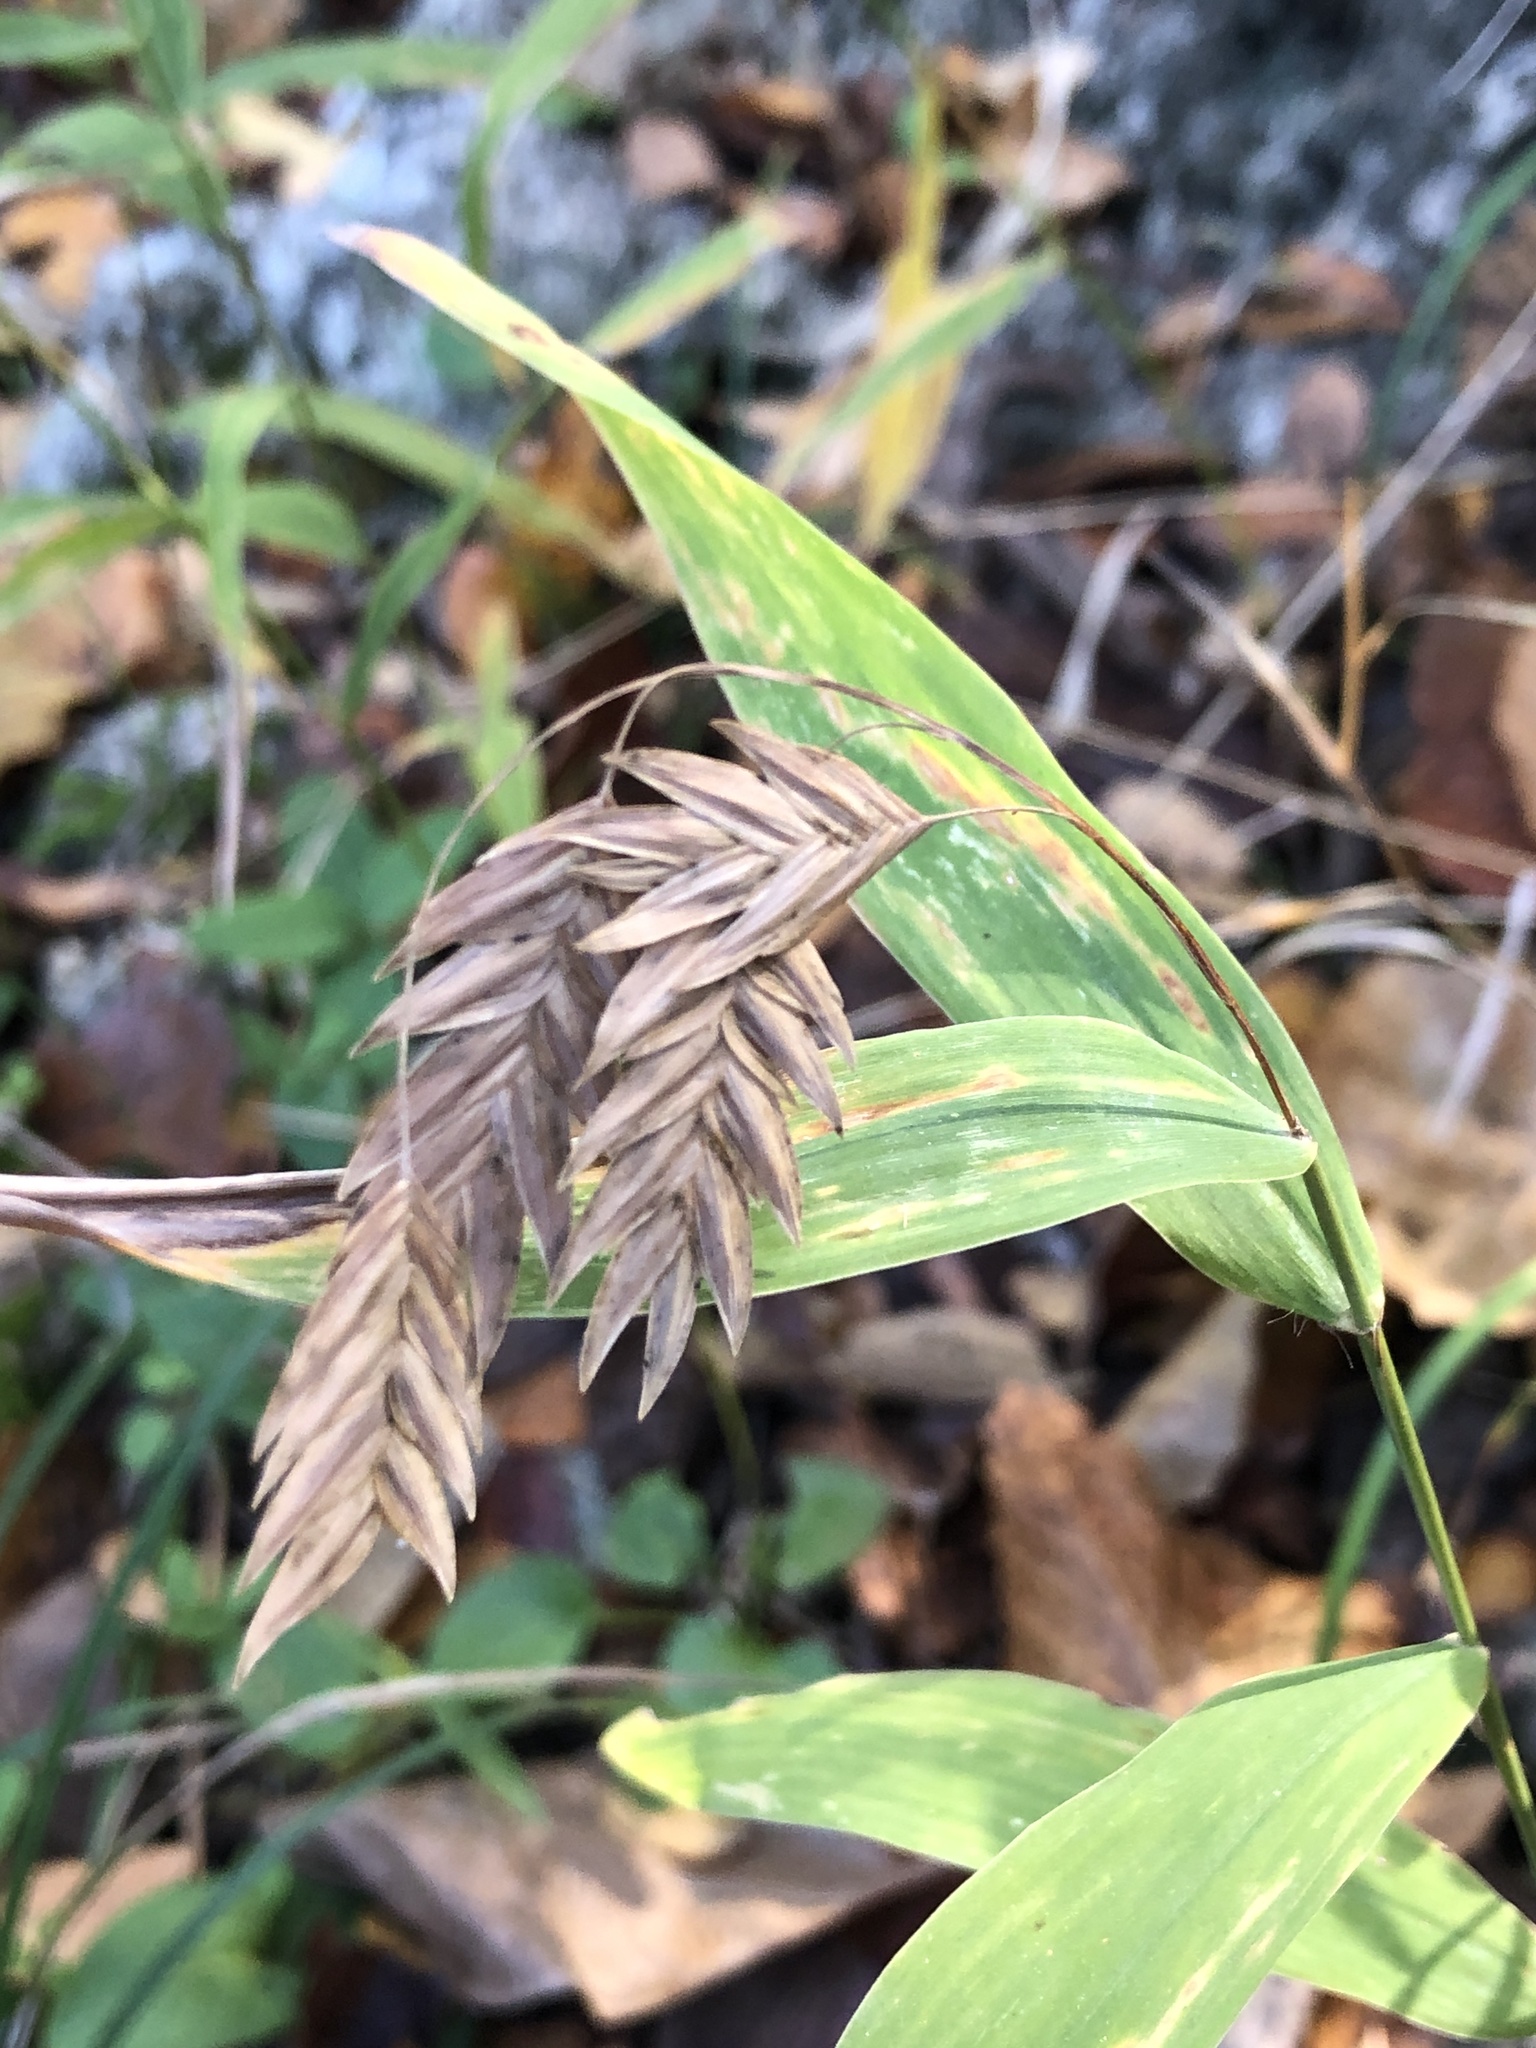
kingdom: Plantae
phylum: Tracheophyta
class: Liliopsida
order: Poales
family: Poaceae
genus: Chasmanthium
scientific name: Chasmanthium latifolium
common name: Broad-leaved chasmanthium
